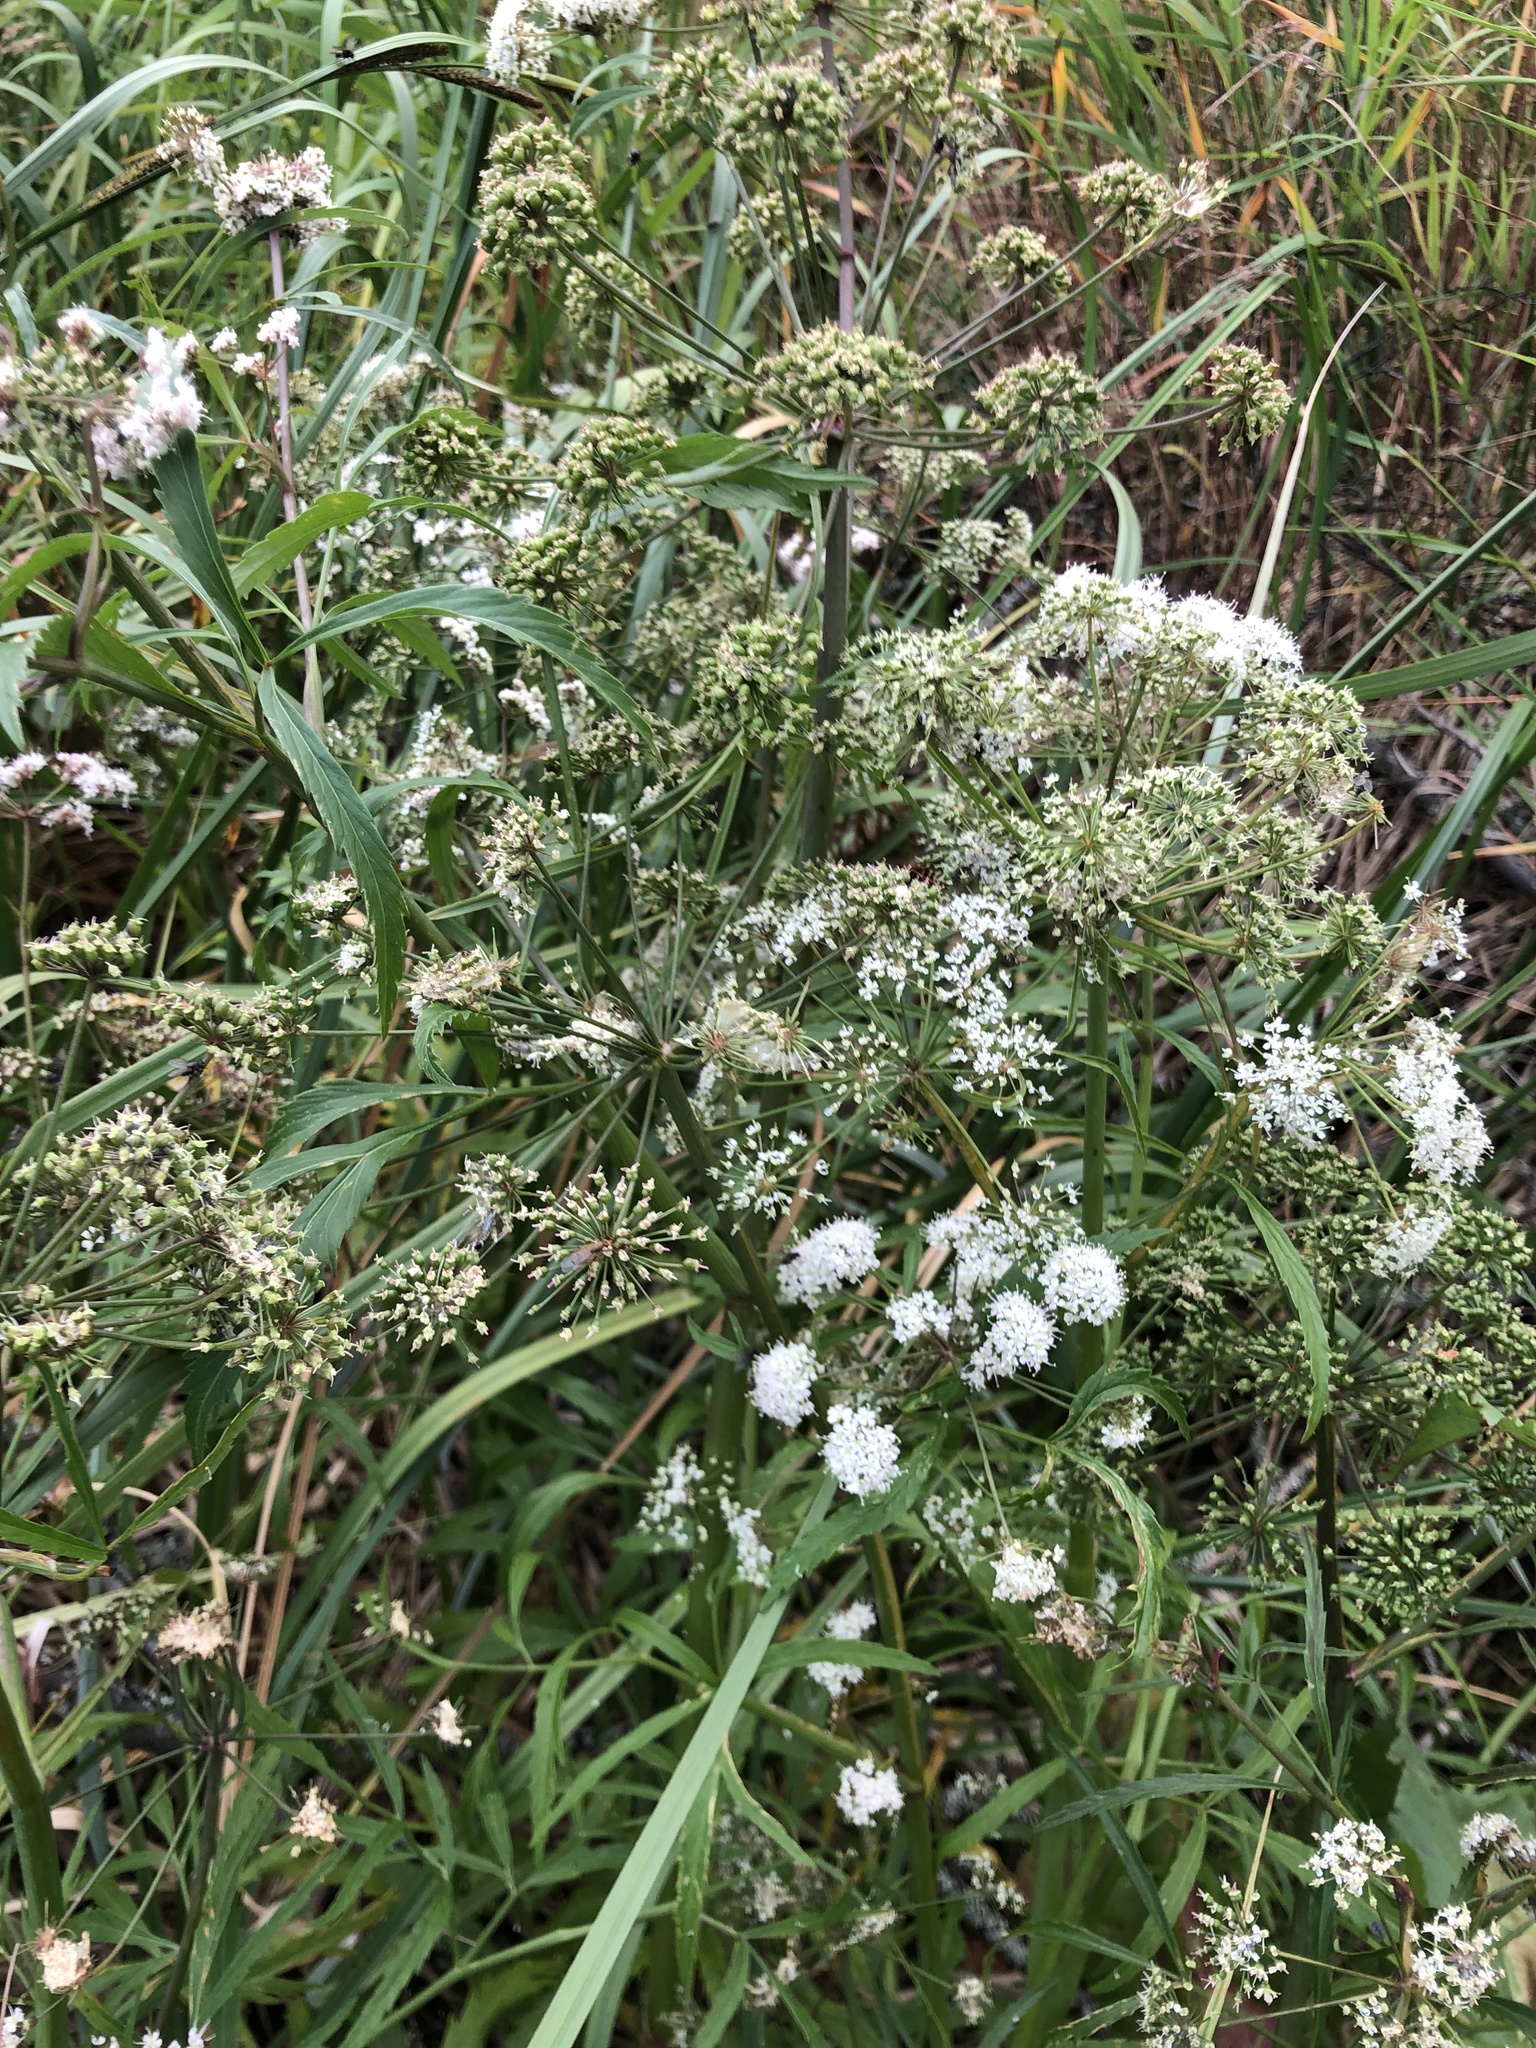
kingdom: Plantae
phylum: Tracheophyta
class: Magnoliopsida
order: Apiales
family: Apiaceae
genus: Cicuta
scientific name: Cicuta virosa
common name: Cowbane
